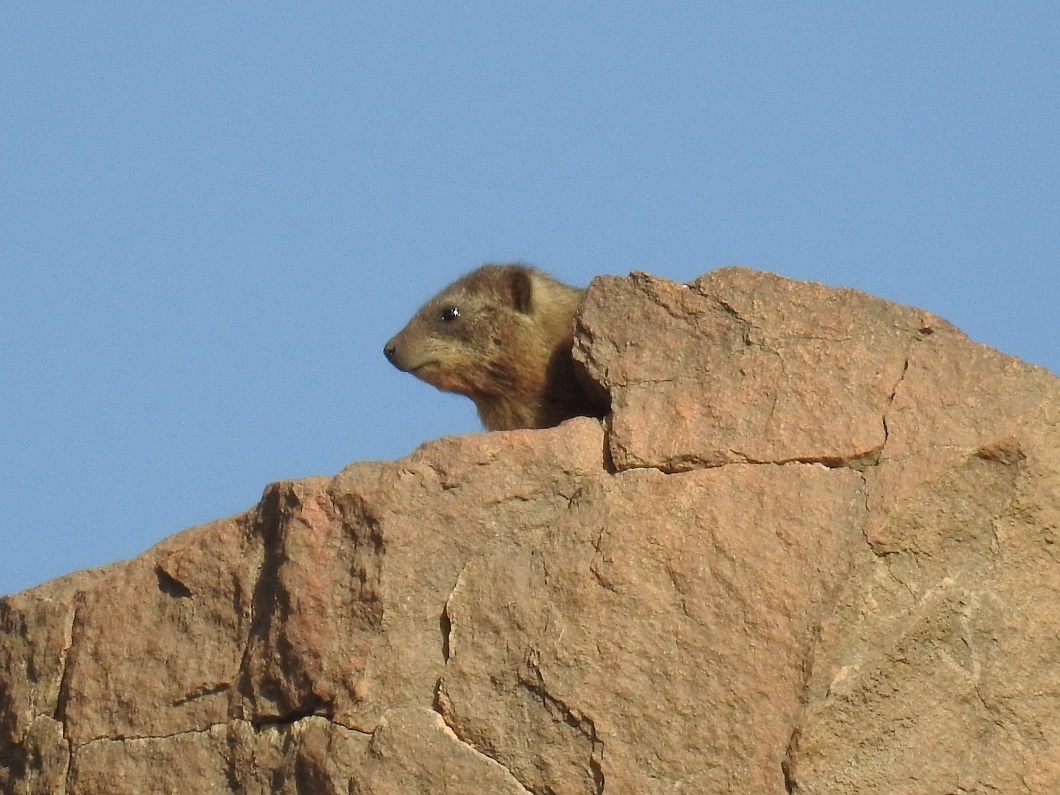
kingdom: Animalia
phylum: Chordata
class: Mammalia
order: Hyracoidea
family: Procaviidae
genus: Procavia
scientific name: Procavia capensis
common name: Rock hyrax
